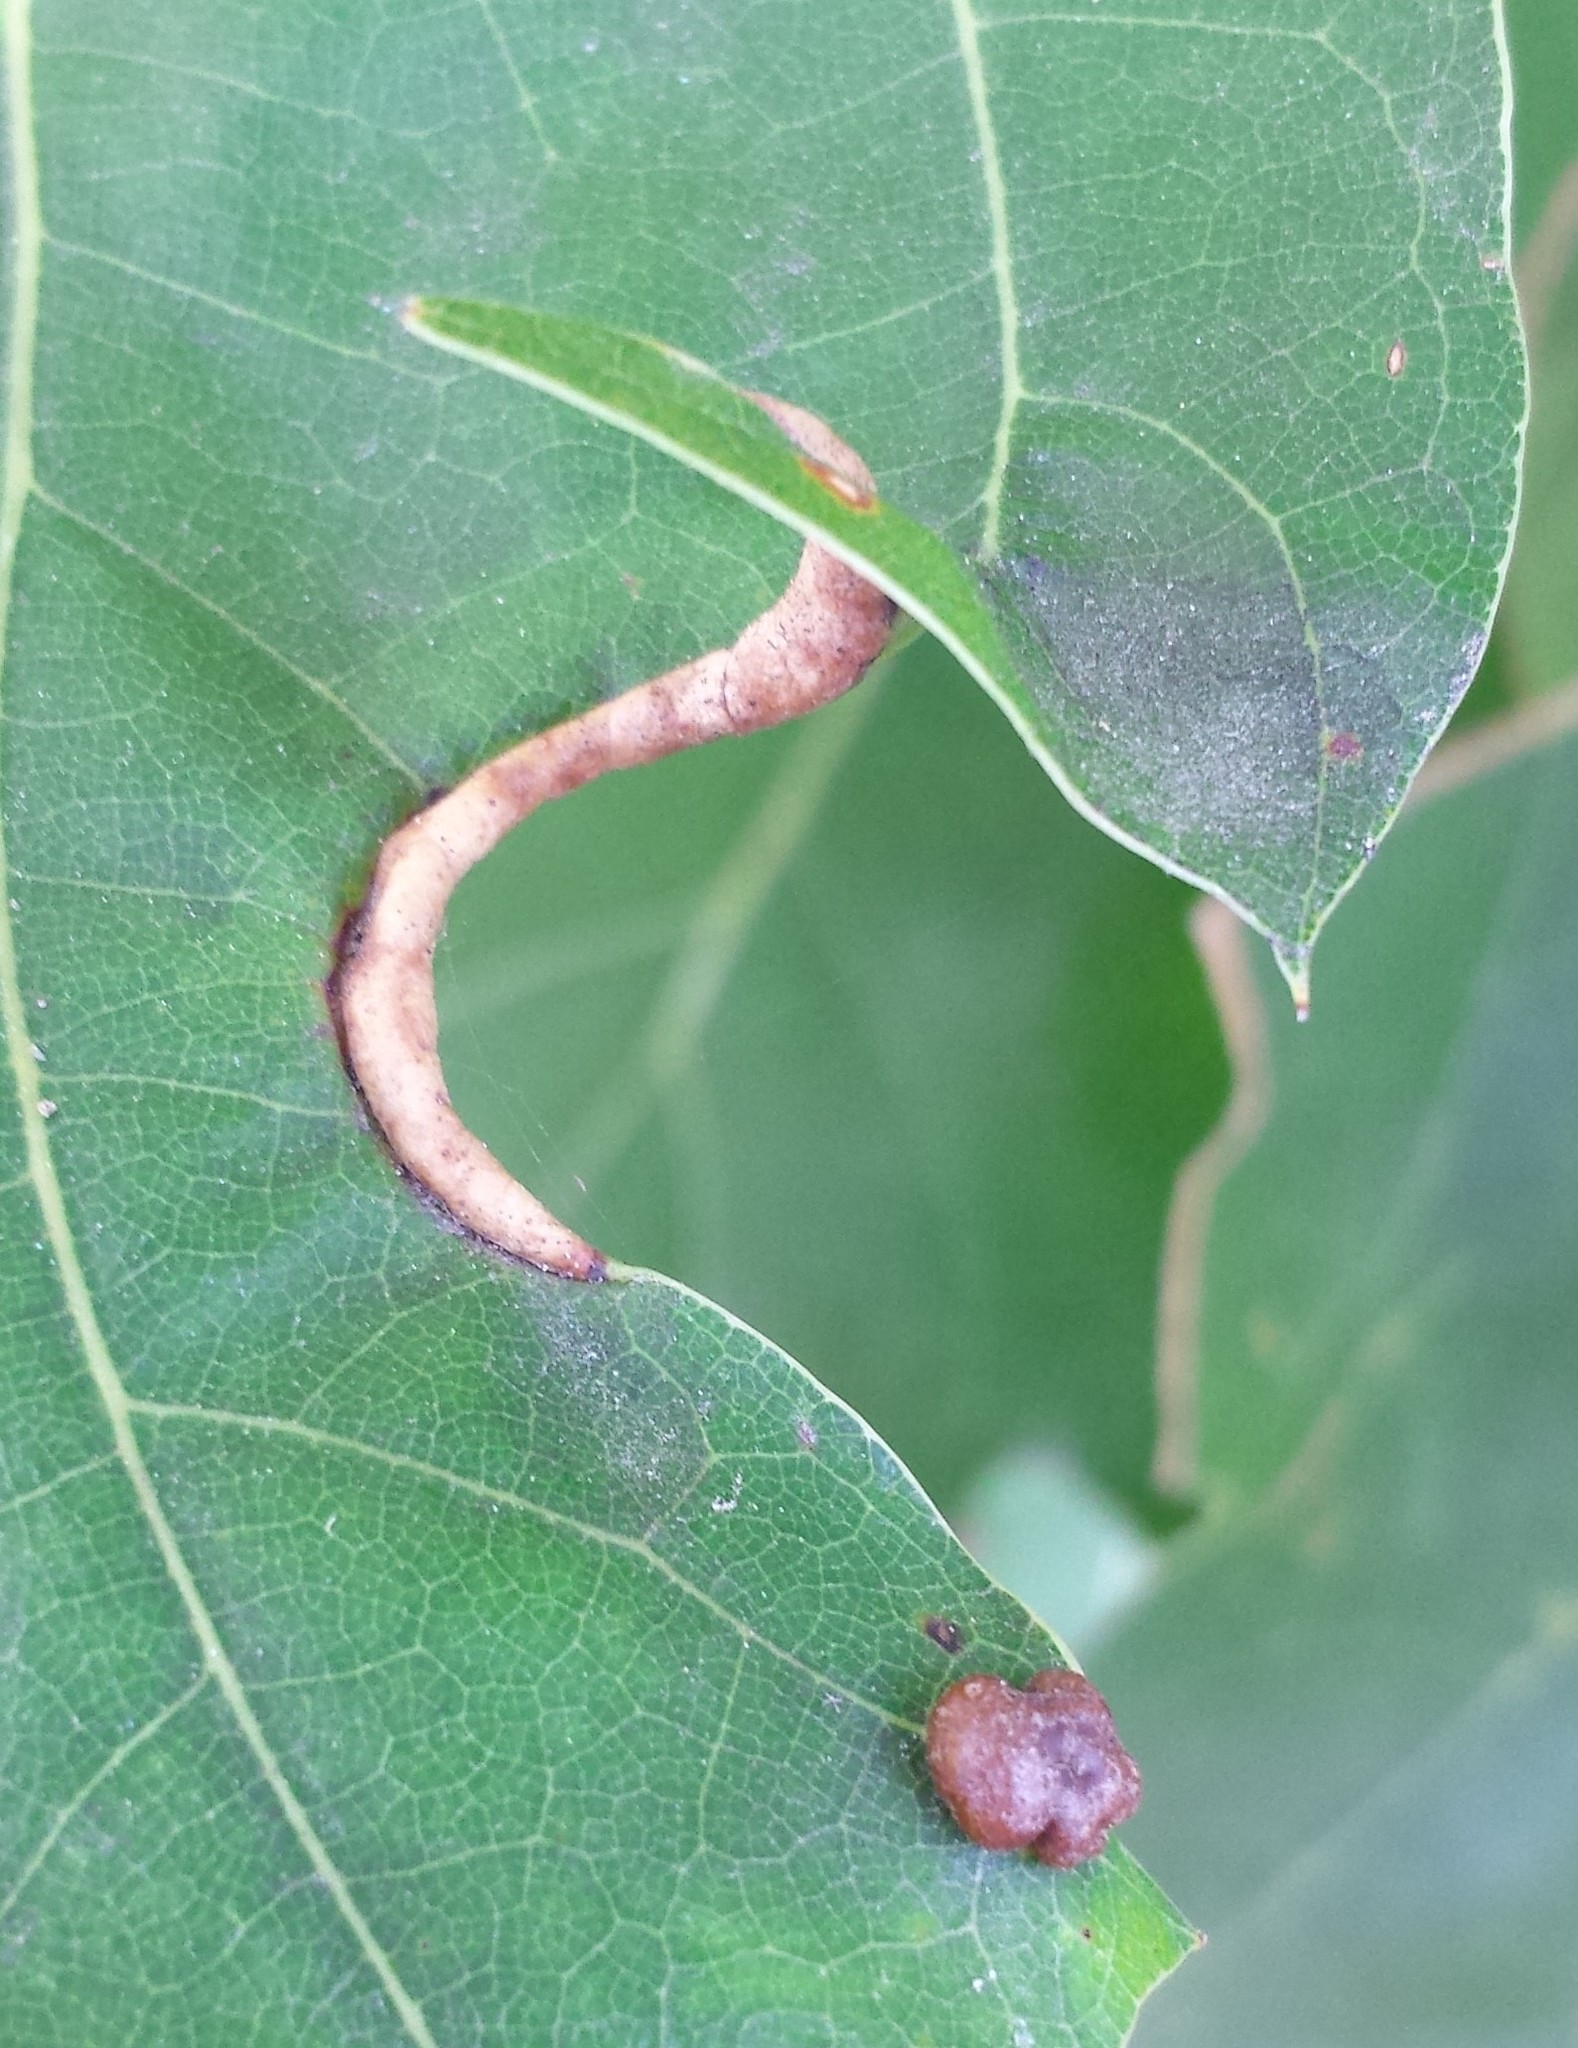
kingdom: Animalia
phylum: Arthropoda
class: Insecta
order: Diptera
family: Cecidomyiidae
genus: Macrodiplosis
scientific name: Macrodiplosis erubescens
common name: Marginal leaf fold gall midge
